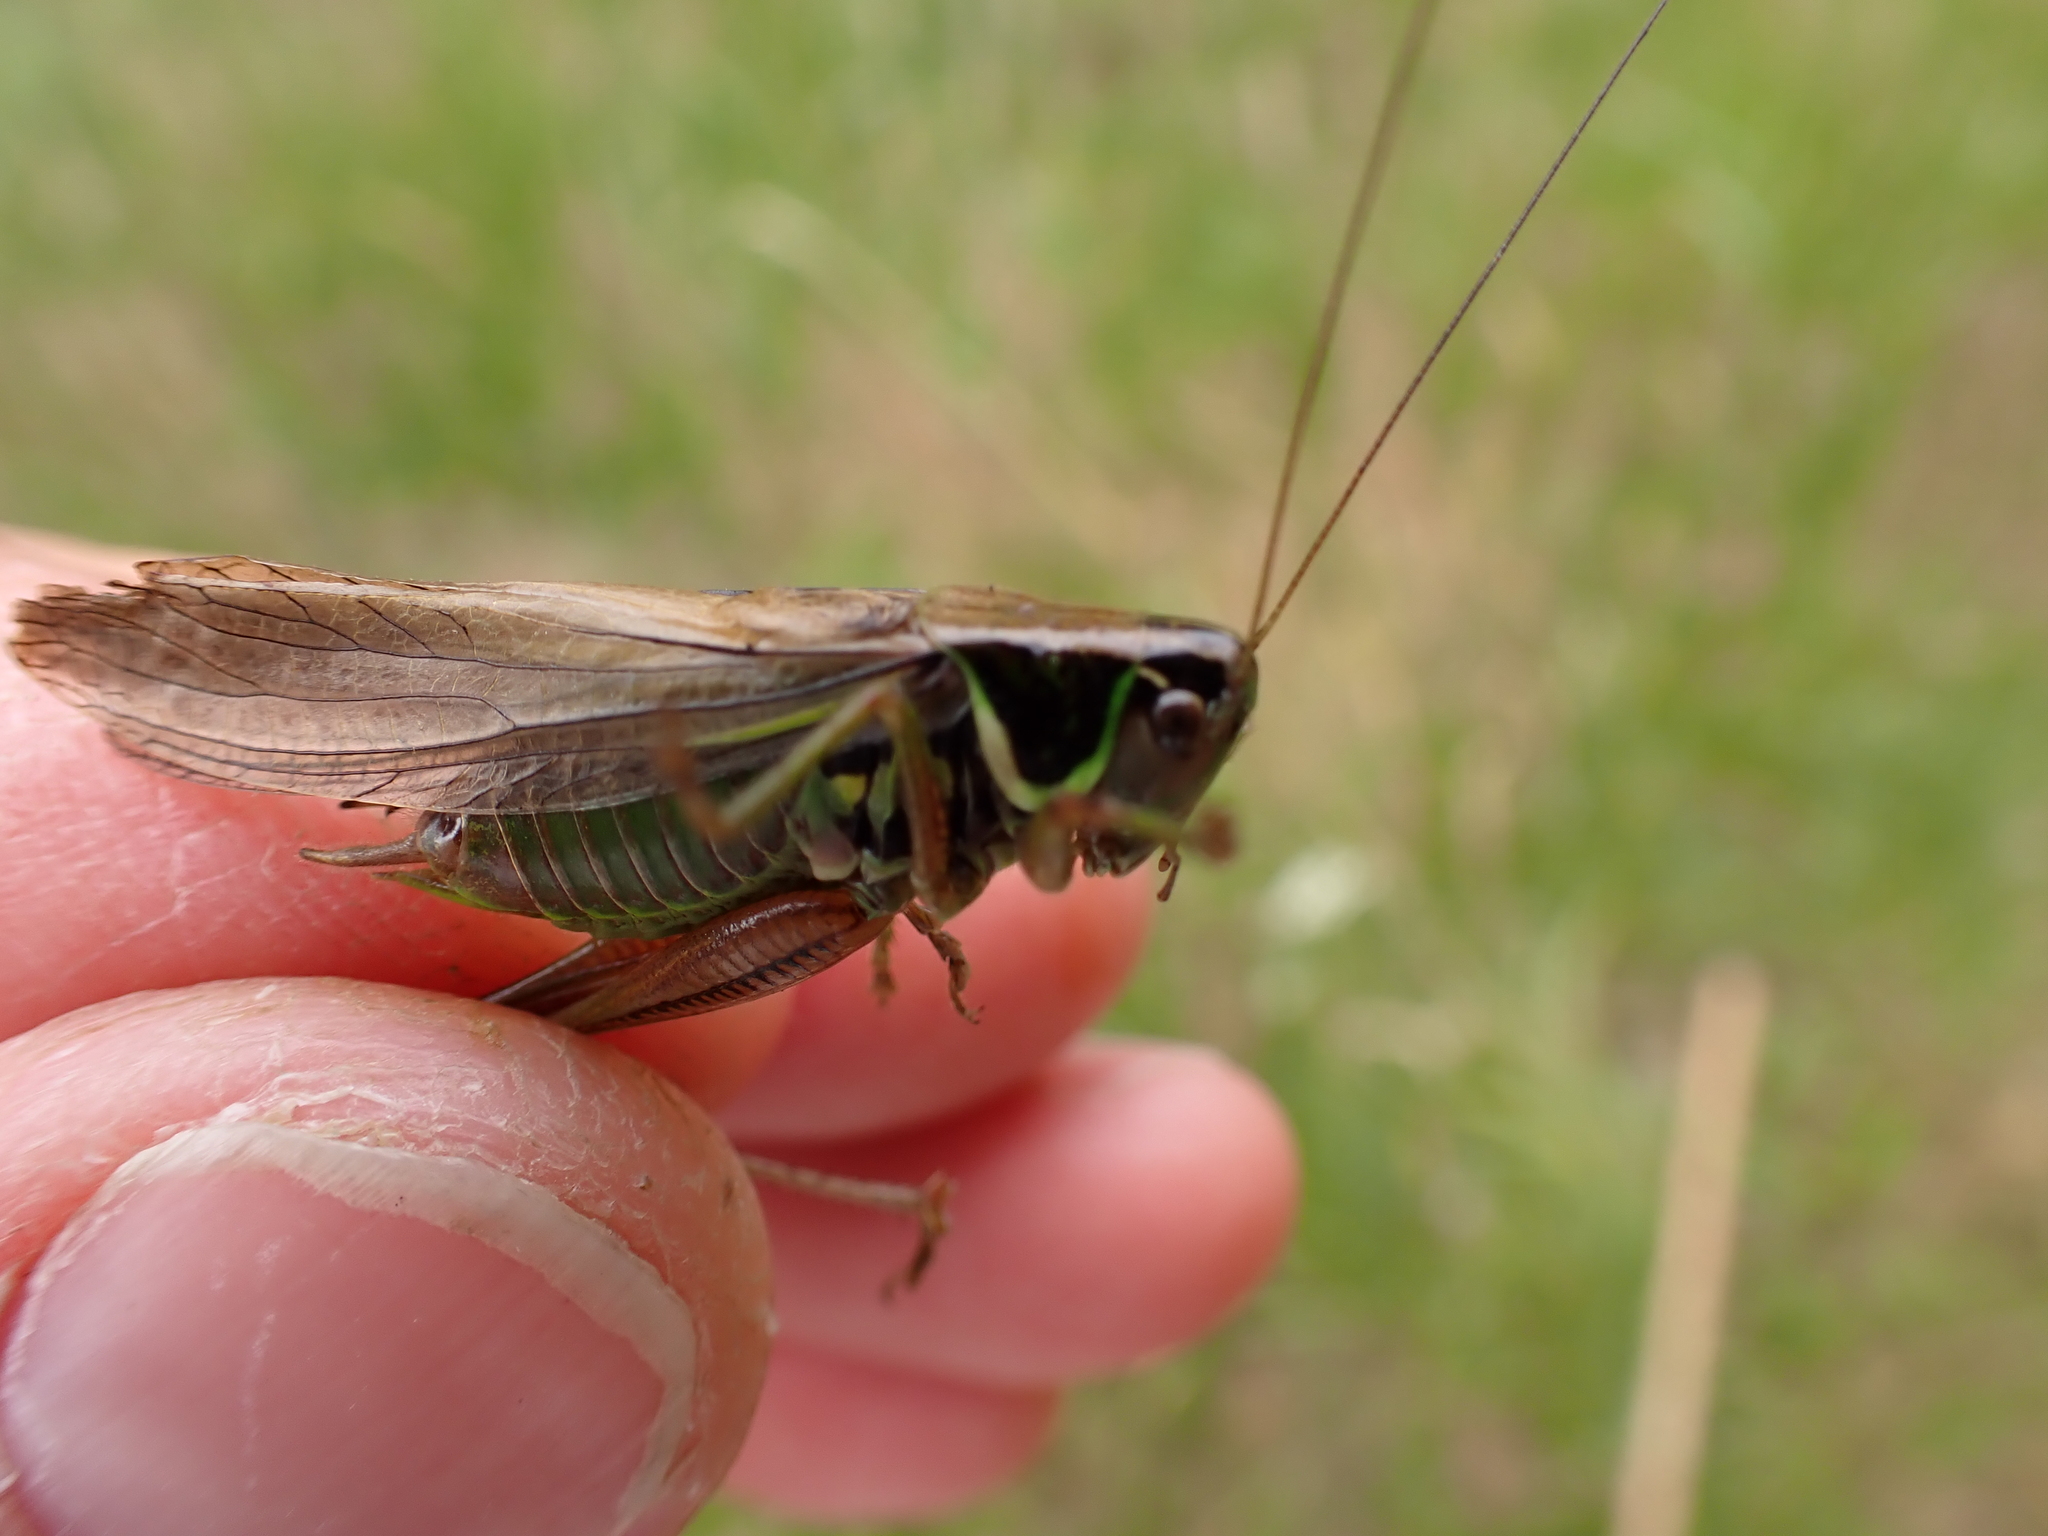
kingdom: Animalia
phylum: Arthropoda
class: Insecta
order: Orthoptera
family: Tettigoniidae
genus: Roeseliana
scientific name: Roeseliana roeselii
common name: Roesel's bush cricket
